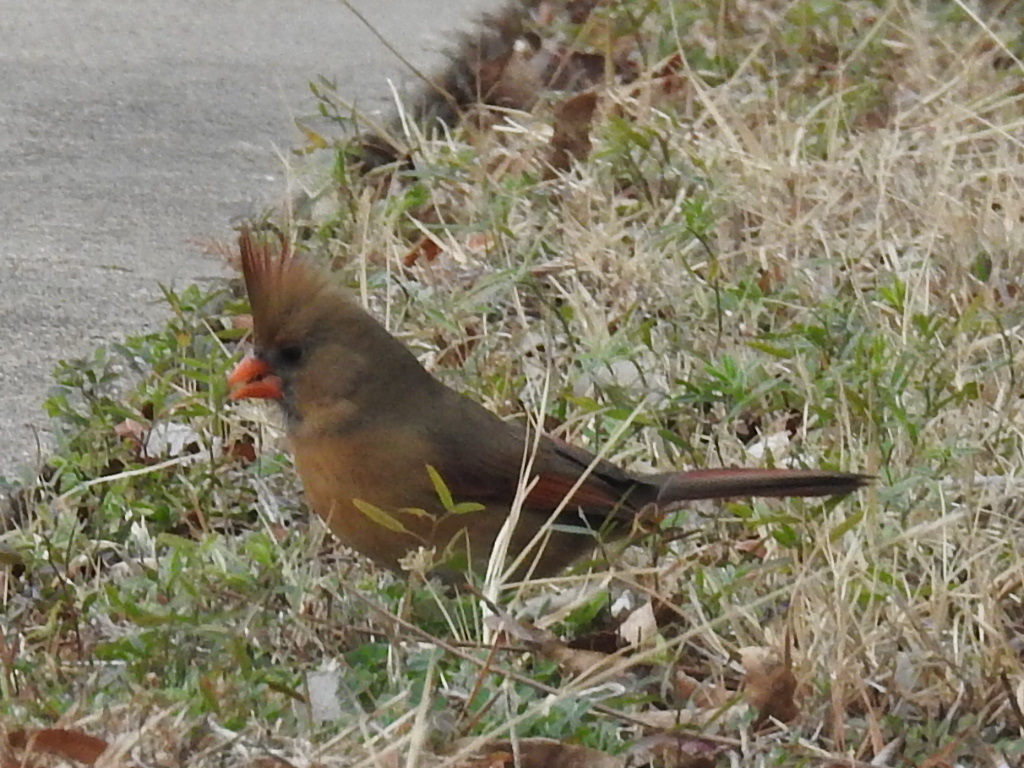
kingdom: Animalia
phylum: Chordata
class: Aves
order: Passeriformes
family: Cardinalidae
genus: Cardinalis
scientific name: Cardinalis cardinalis
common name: Northern cardinal
